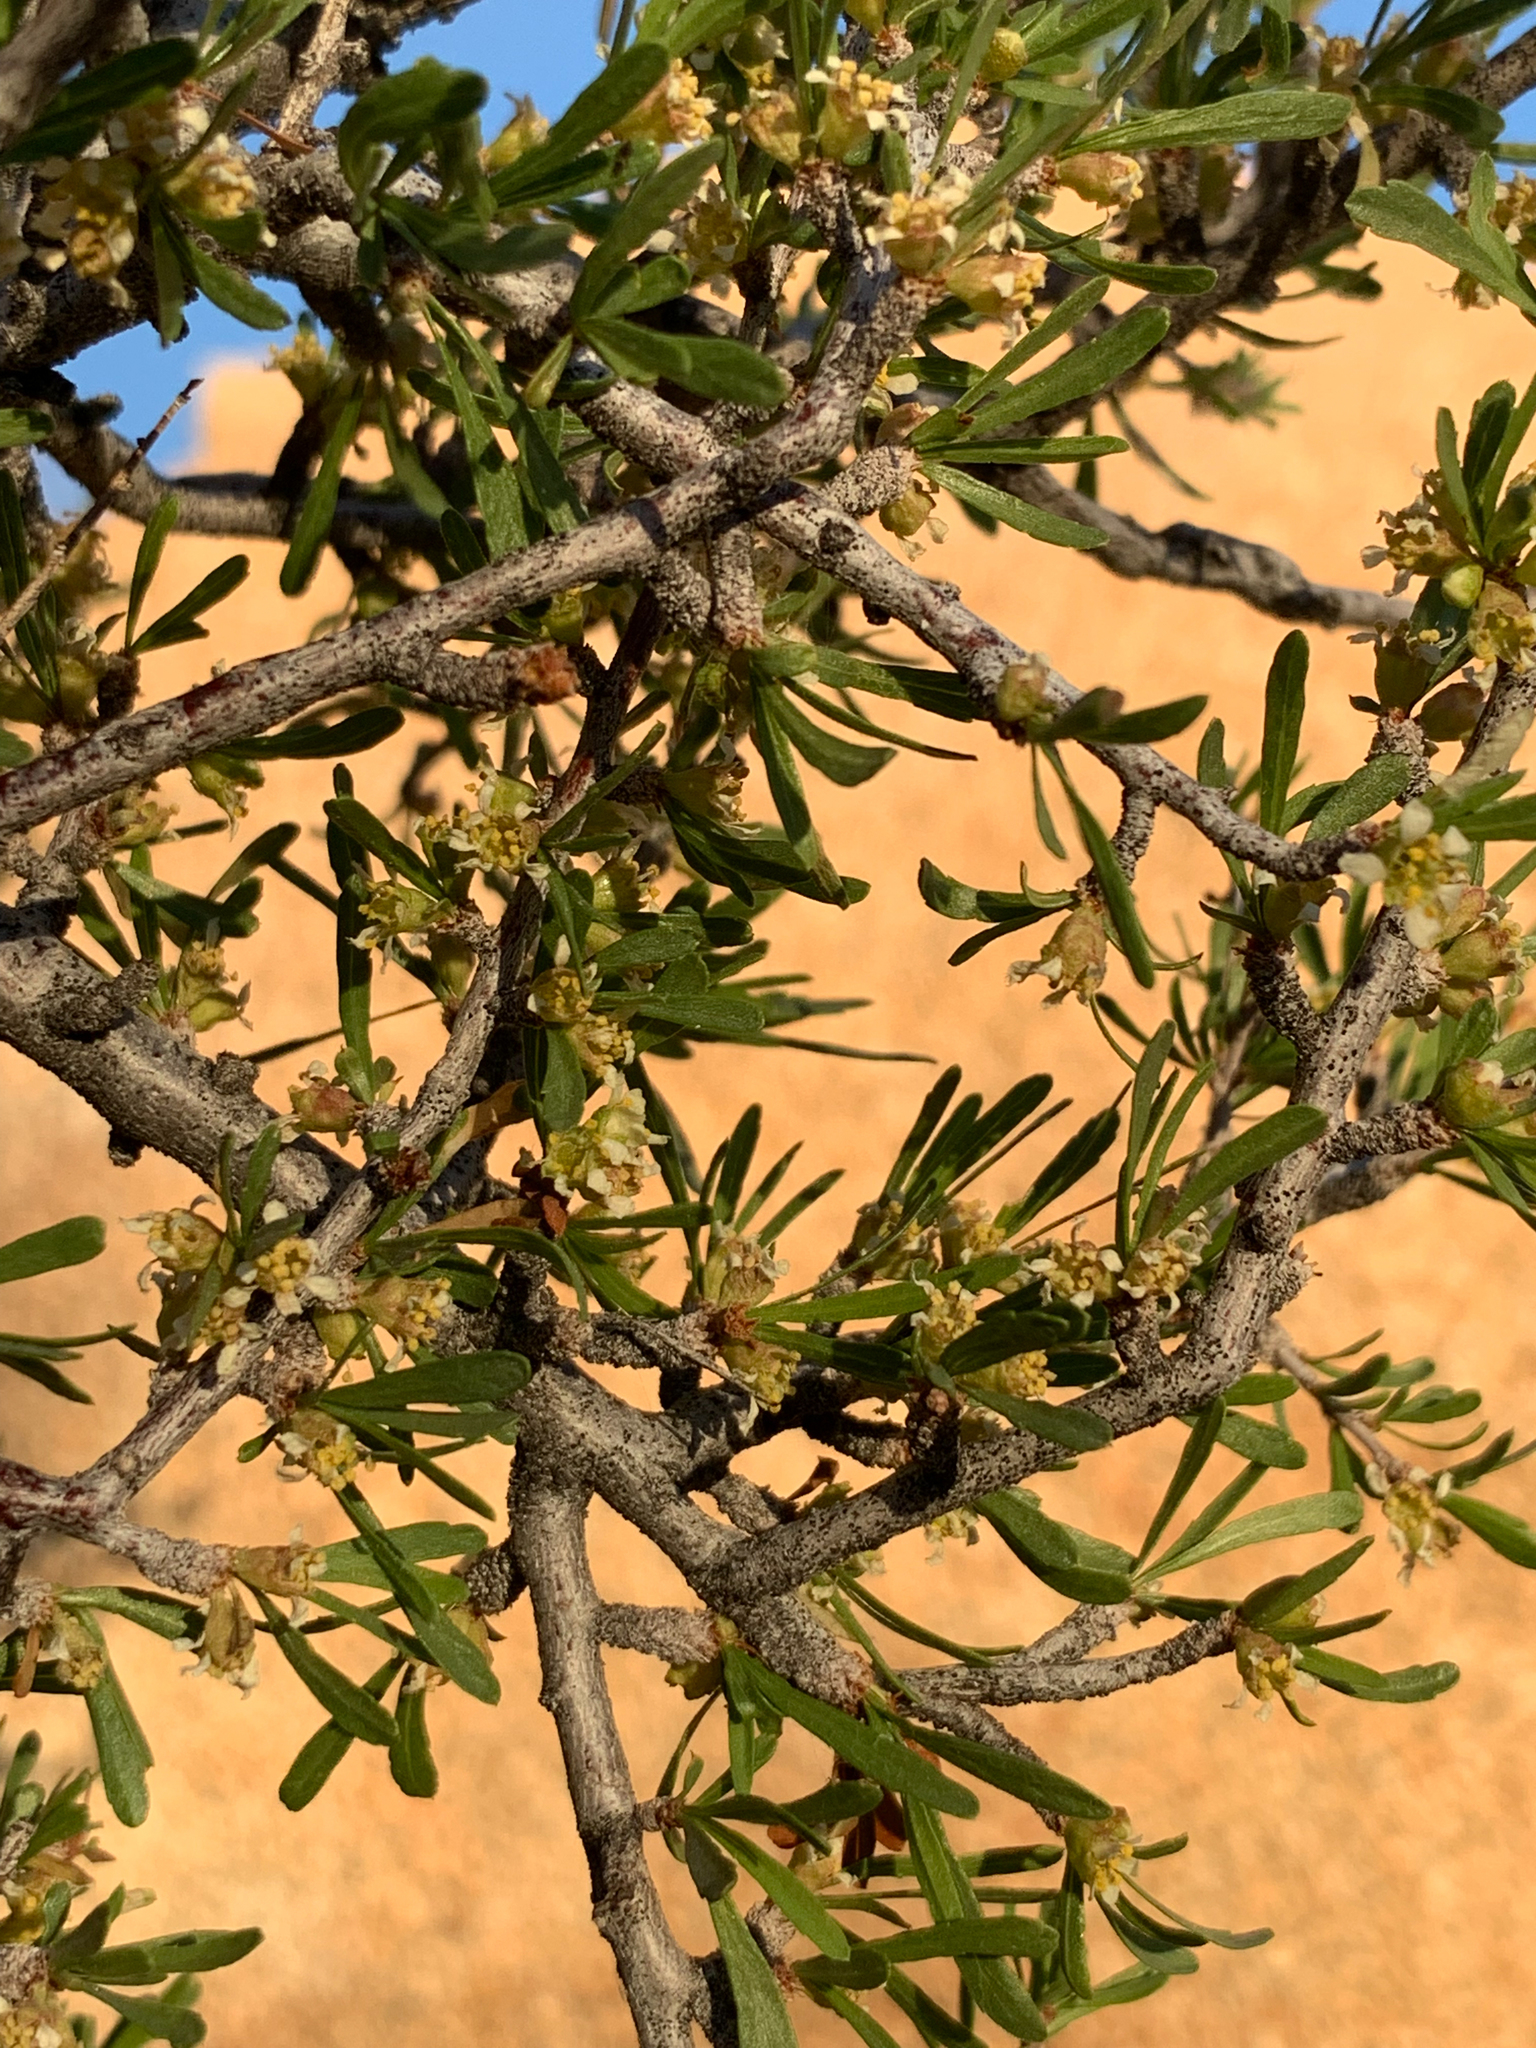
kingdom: Plantae
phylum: Tracheophyta
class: Magnoliopsida
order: Rosales
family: Rosaceae
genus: Prunus
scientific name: Prunus fasciculata
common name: Desert almond
